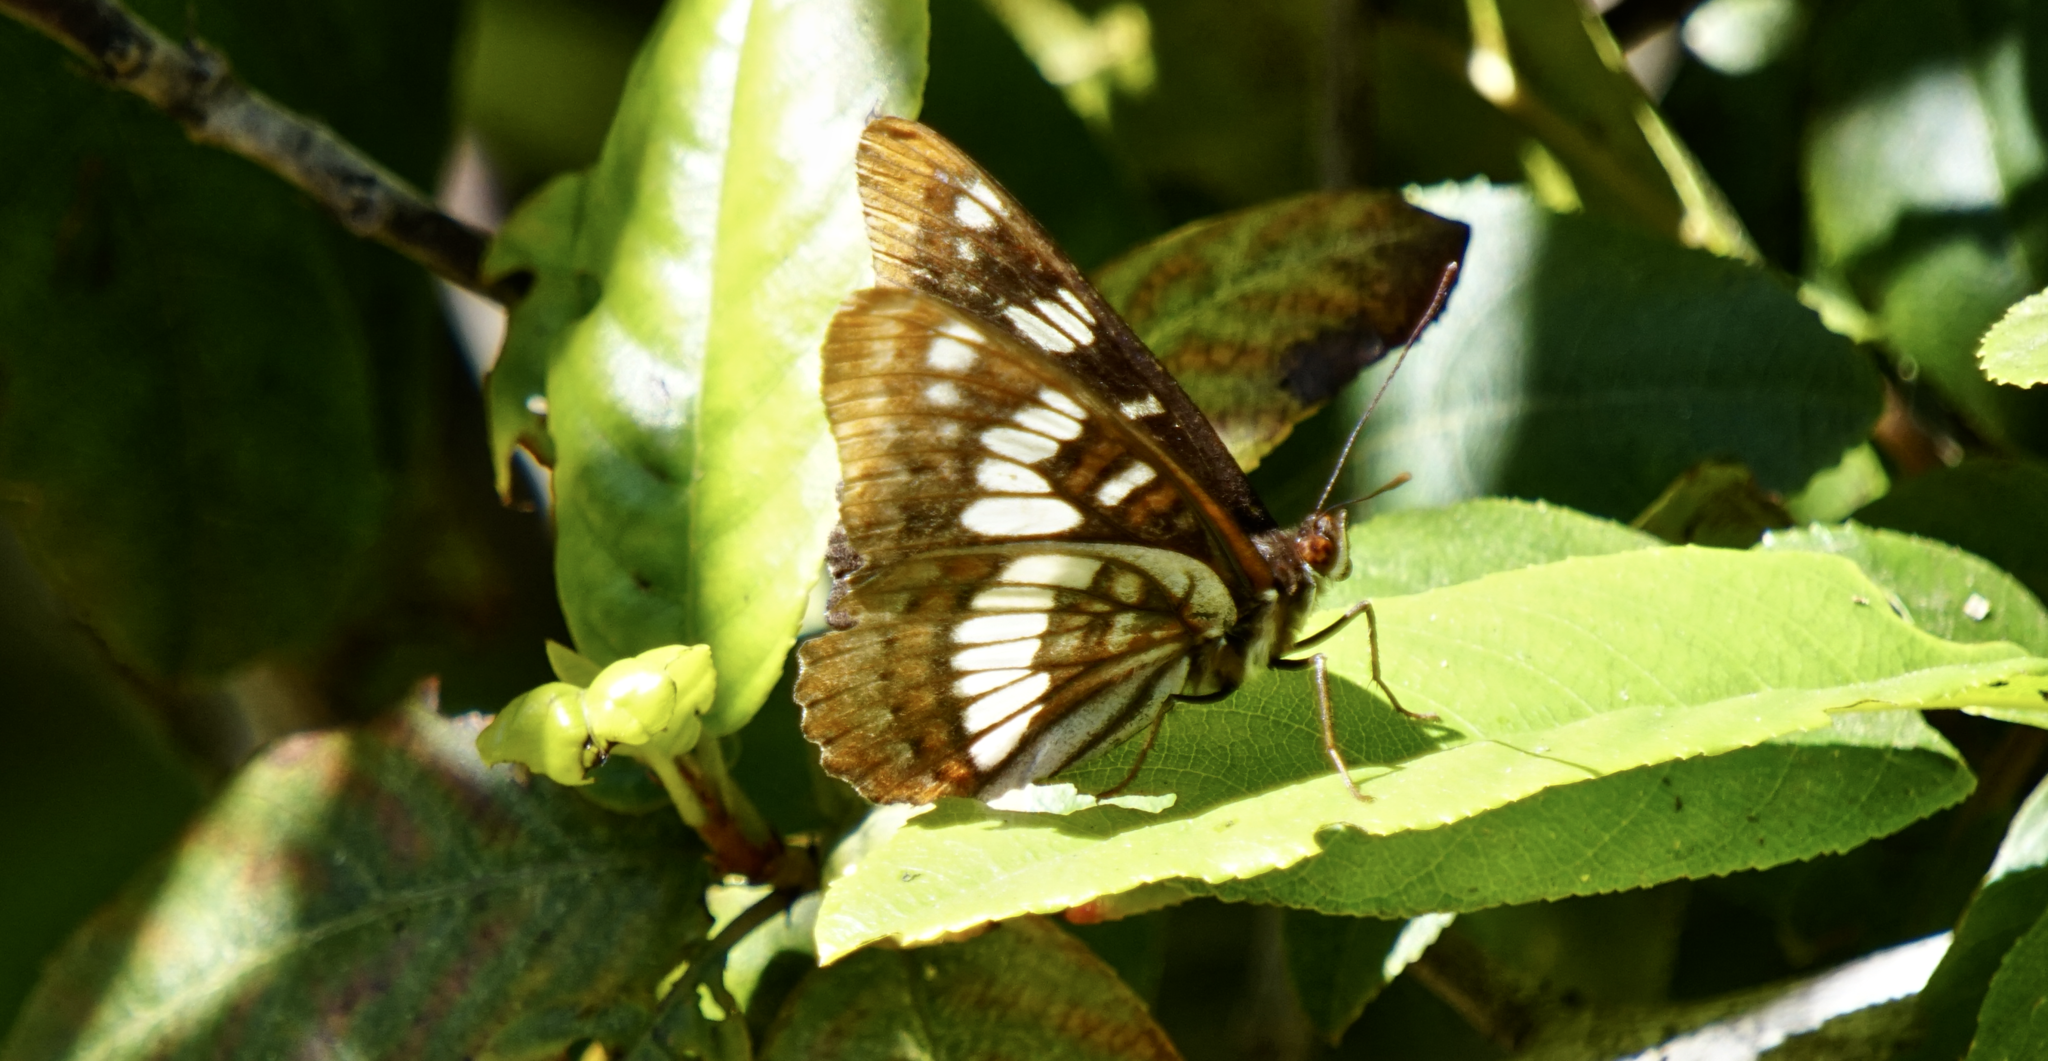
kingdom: Animalia
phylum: Arthropoda
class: Insecta
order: Lepidoptera
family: Nymphalidae
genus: Limenitis
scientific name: Limenitis lorquini
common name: Lorquin's admiral
